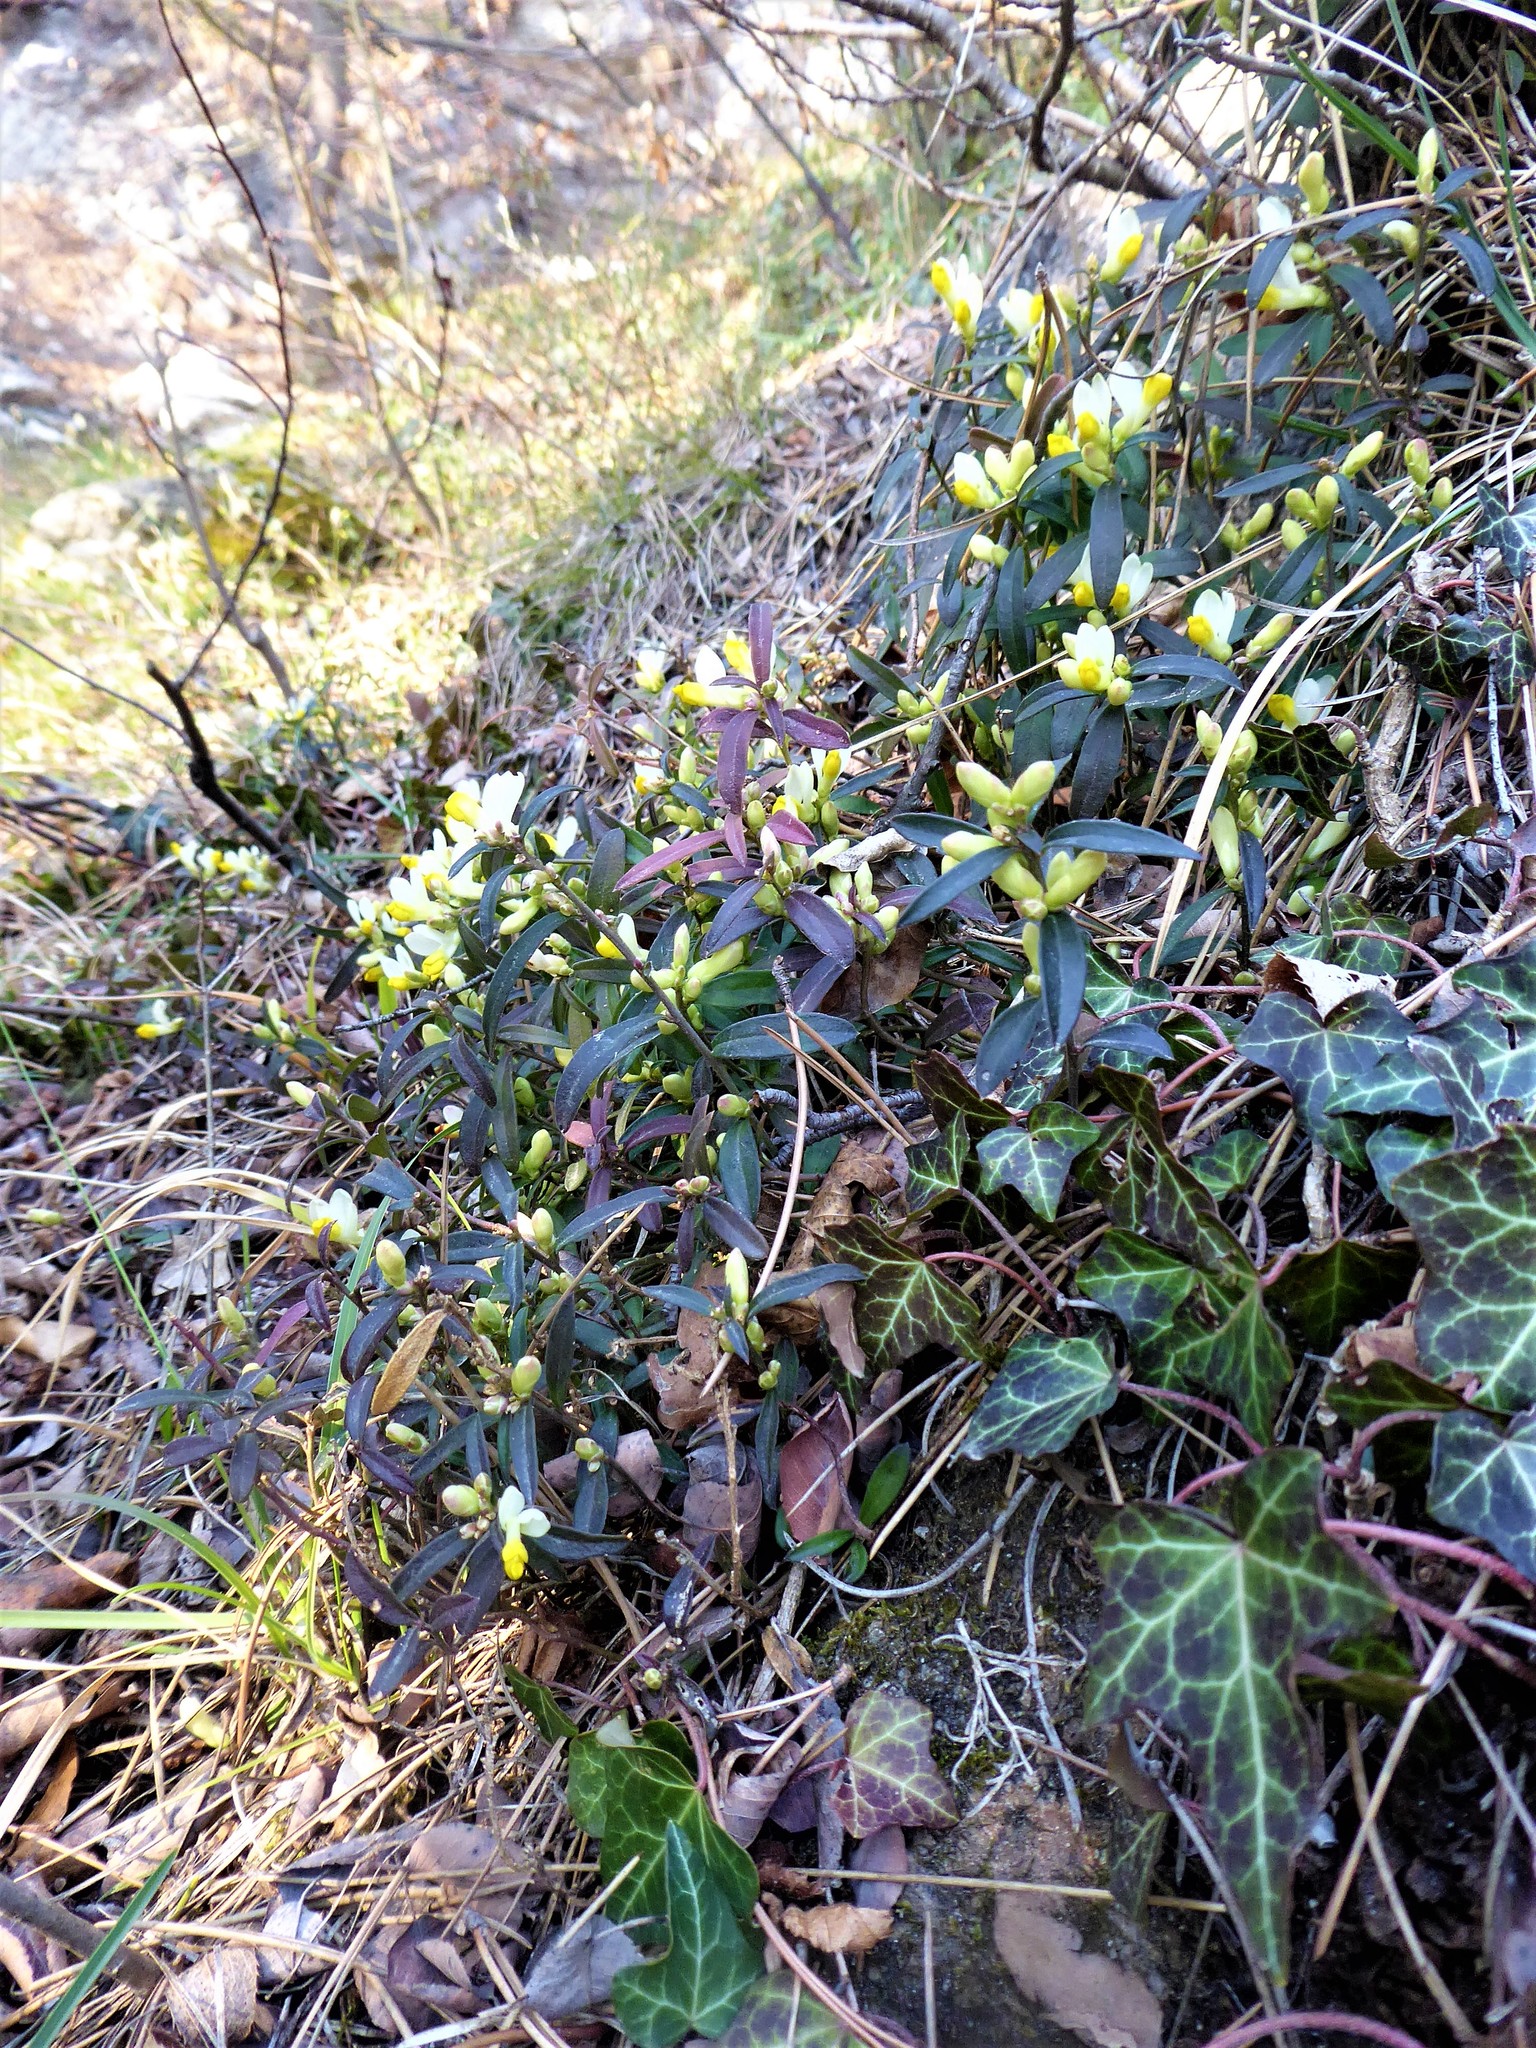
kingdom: Plantae
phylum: Tracheophyta
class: Magnoliopsida
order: Fabales
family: Polygalaceae
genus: Polygaloides
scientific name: Polygaloides chamaebuxus
